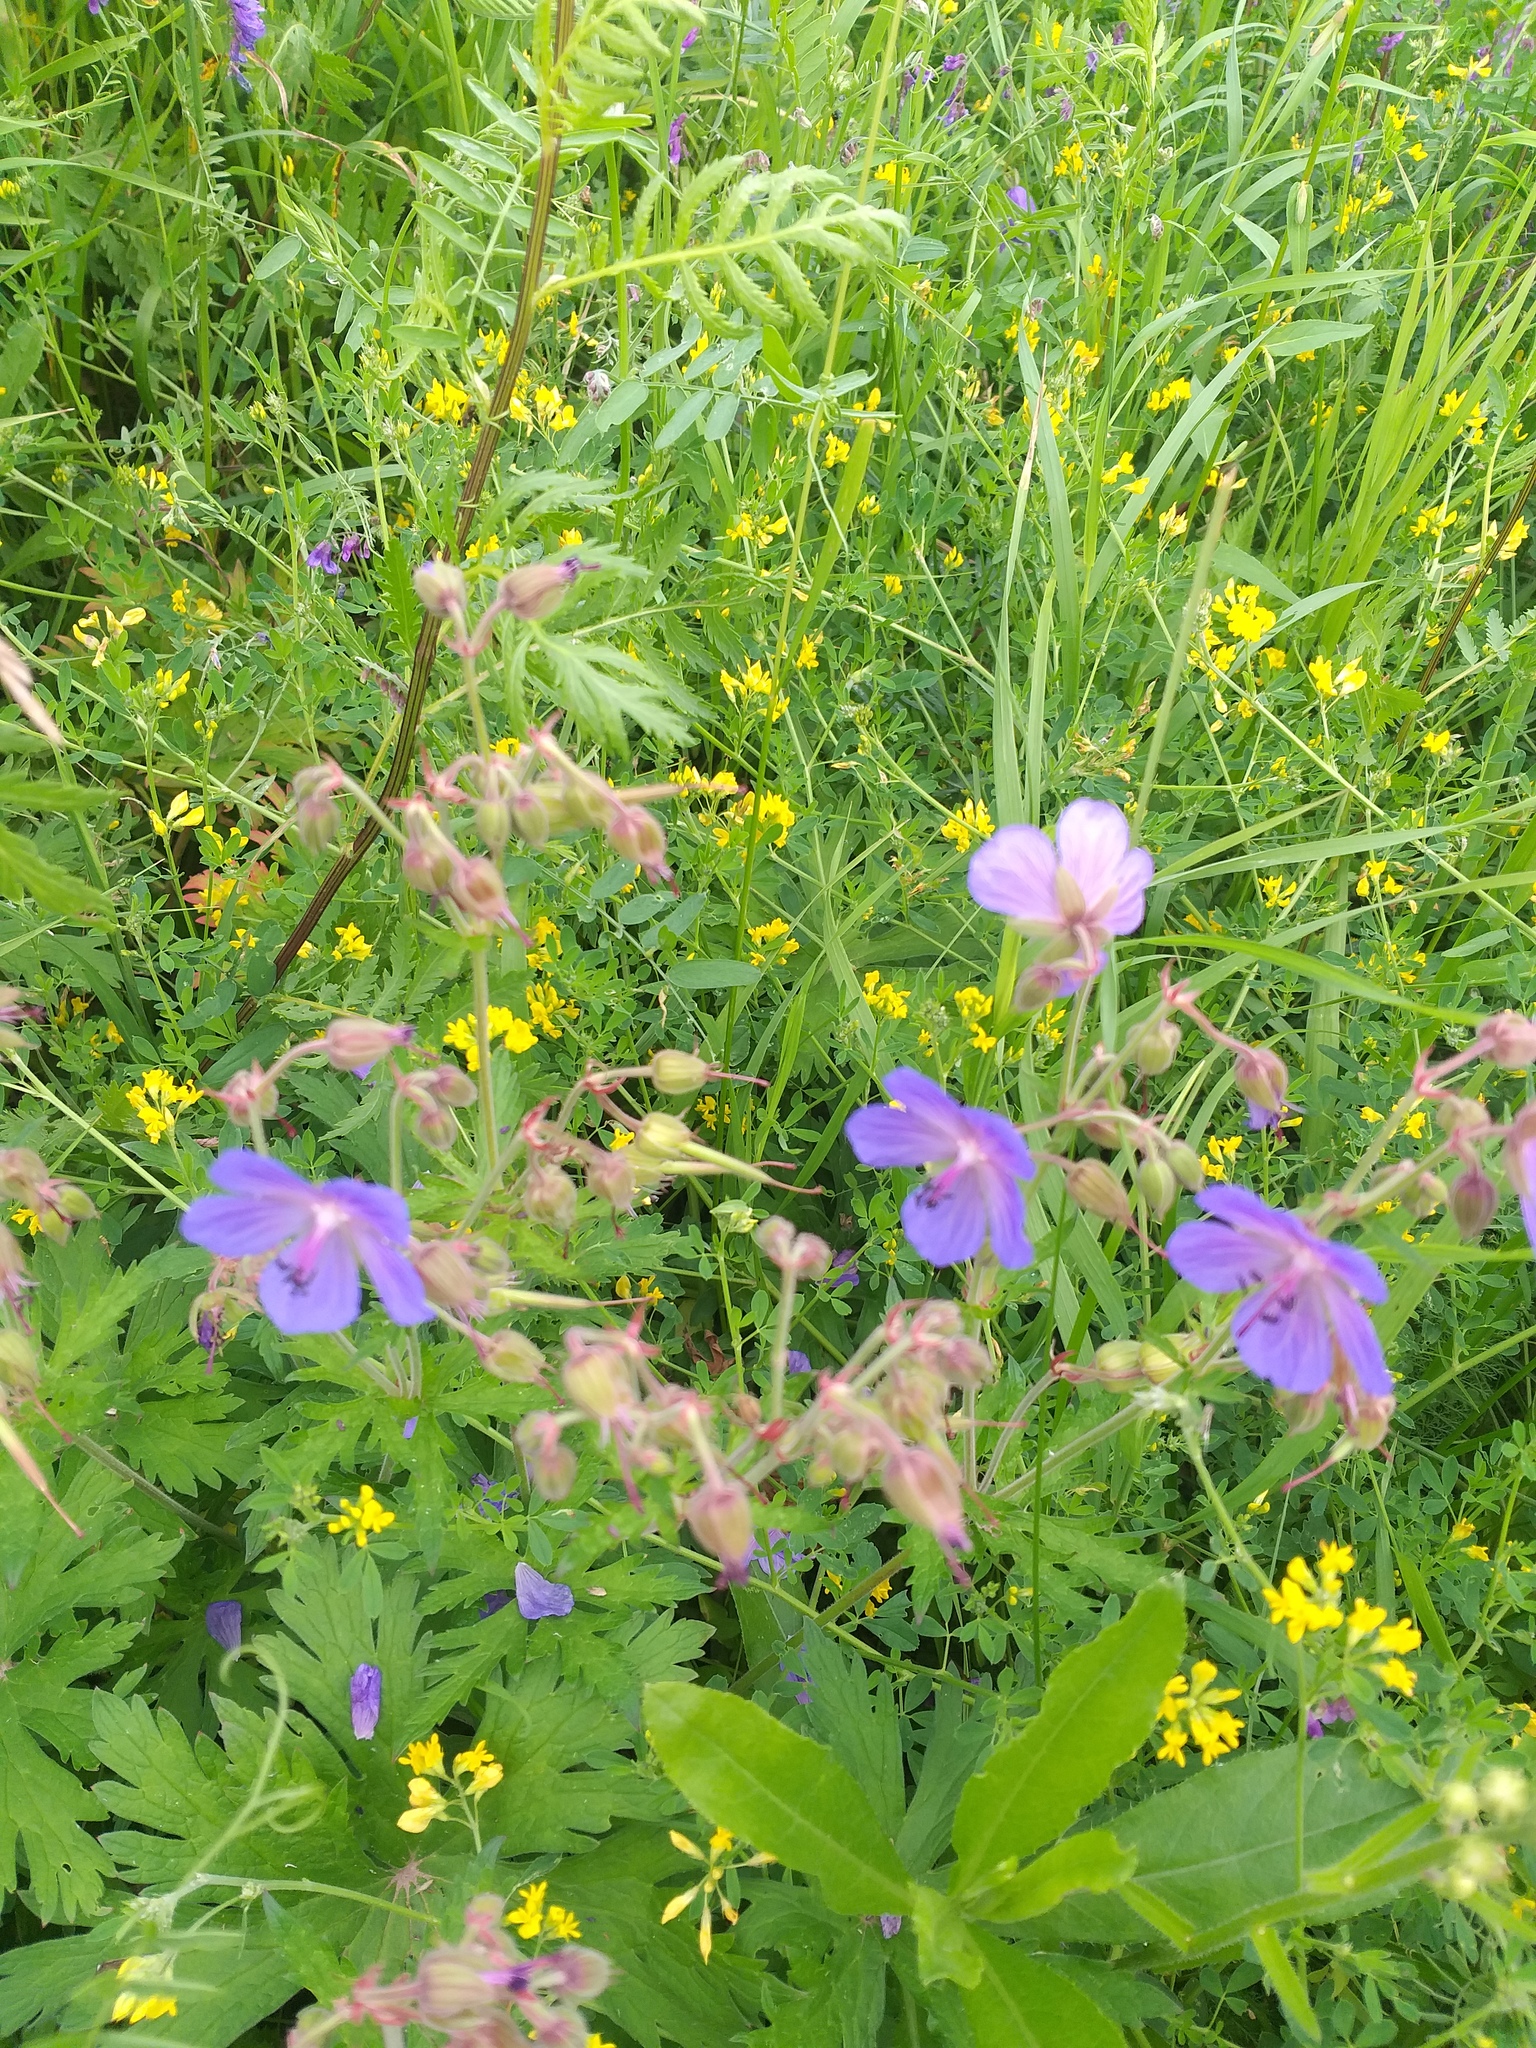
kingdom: Plantae
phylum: Tracheophyta
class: Magnoliopsida
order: Geraniales
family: Geraniaceae
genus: Geranium
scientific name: Geranium pratense
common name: Meadow crane's-bill
